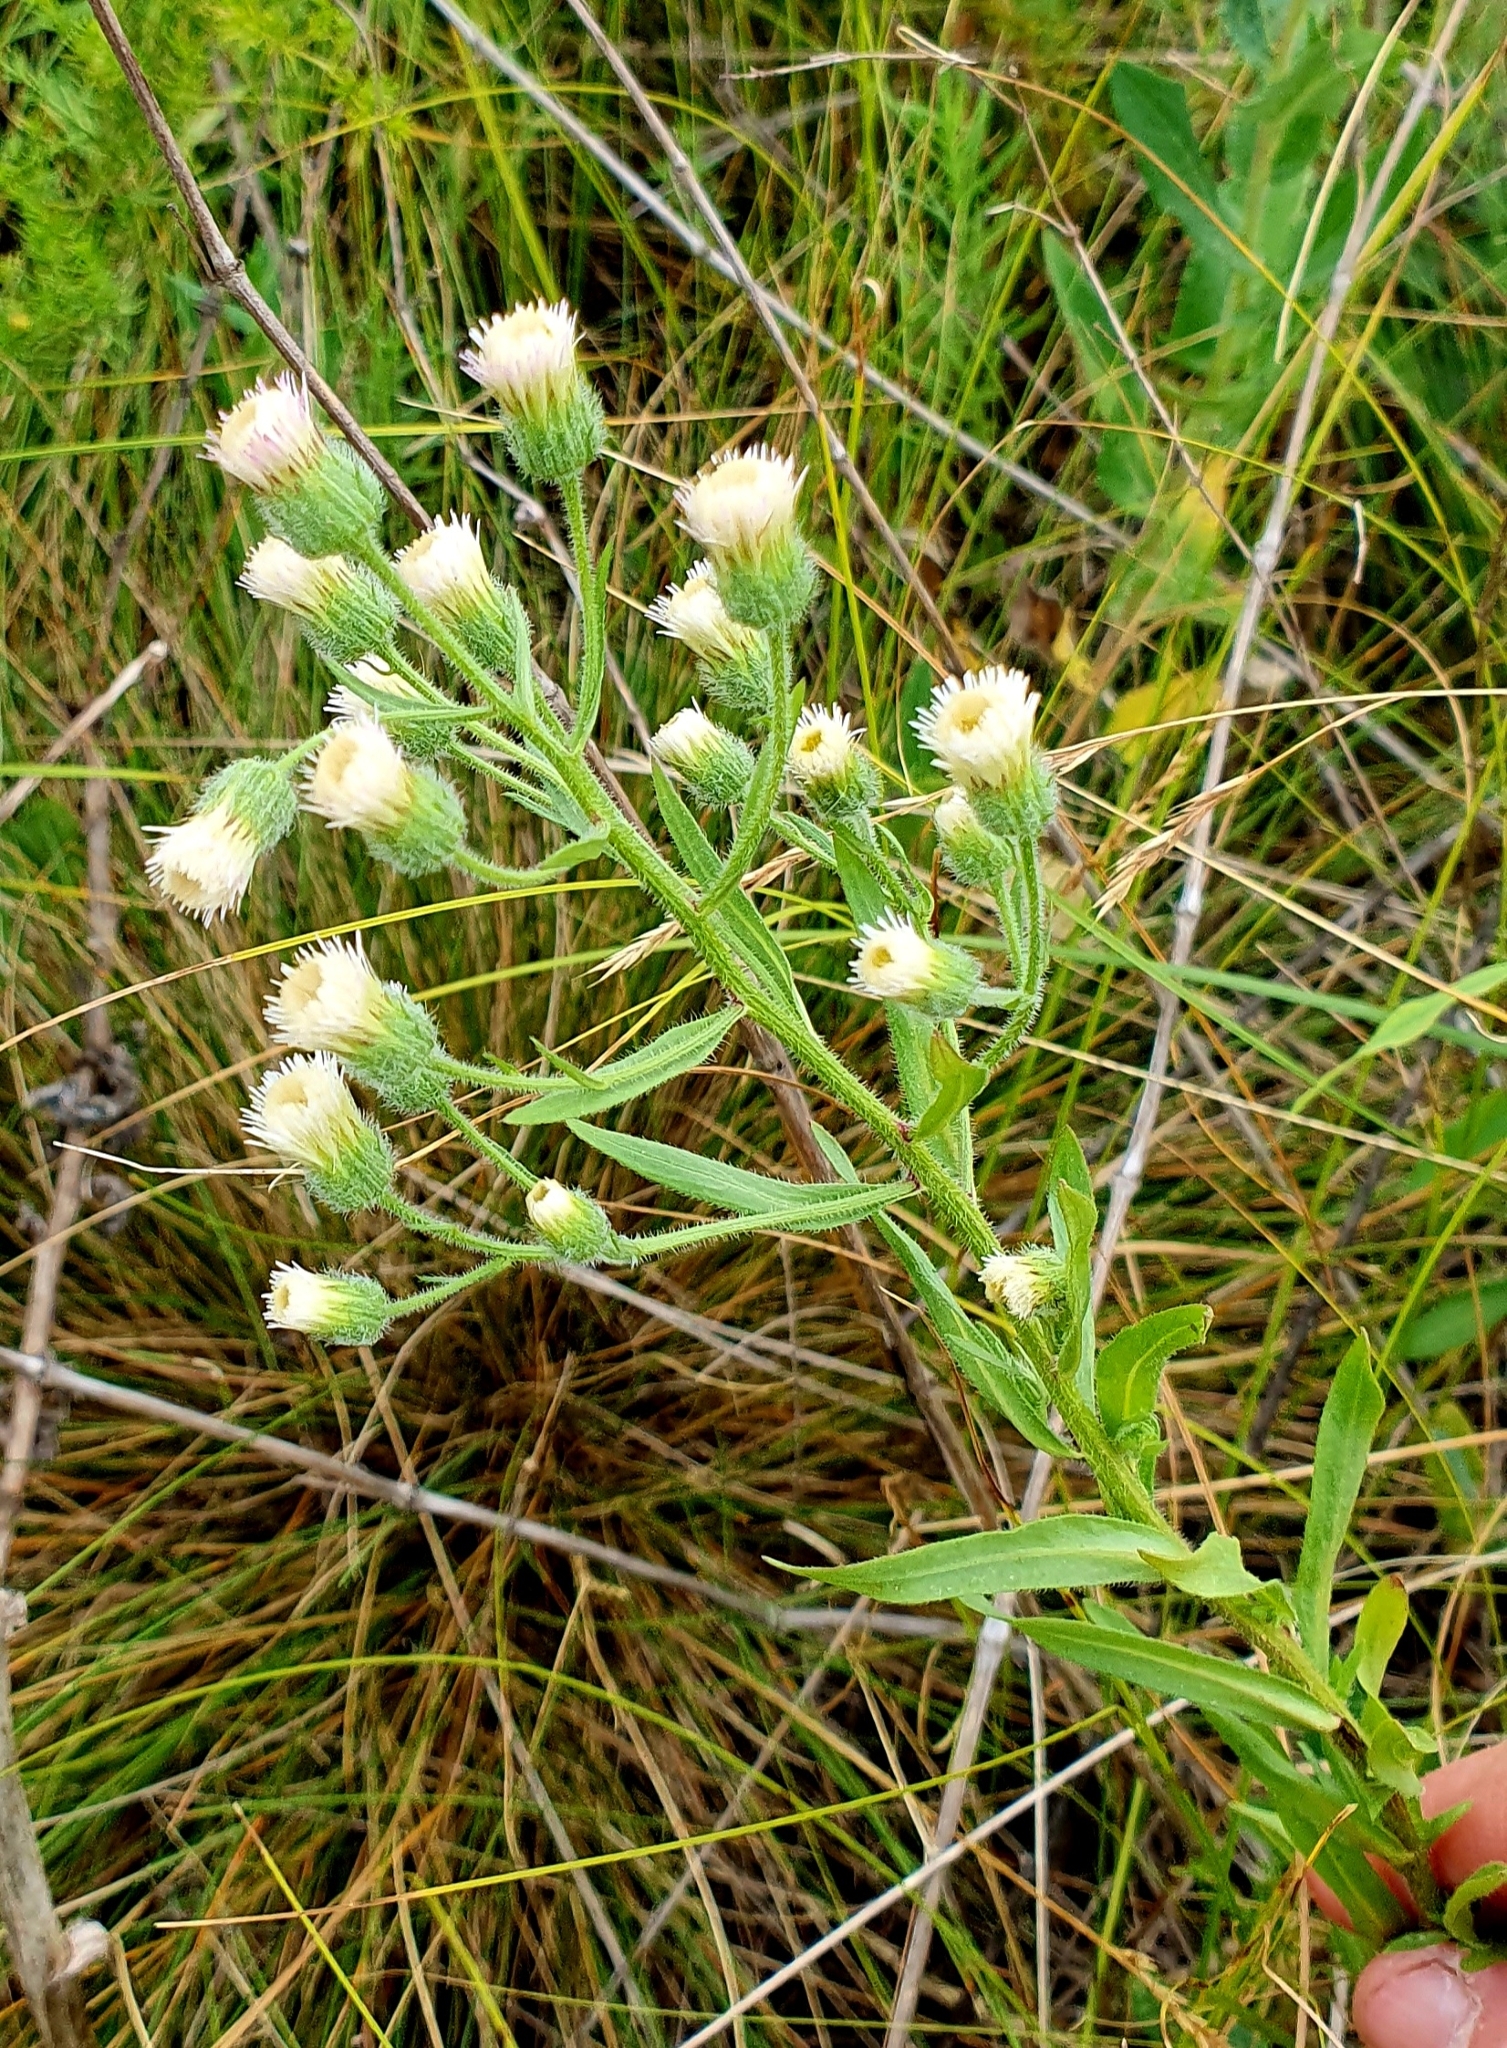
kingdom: Plantae
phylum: Tracheophyta
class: Magnoliopsida
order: Asterales
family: Asteraceae
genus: Erigeron
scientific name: Erigeron acris
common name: Blue fleabane
